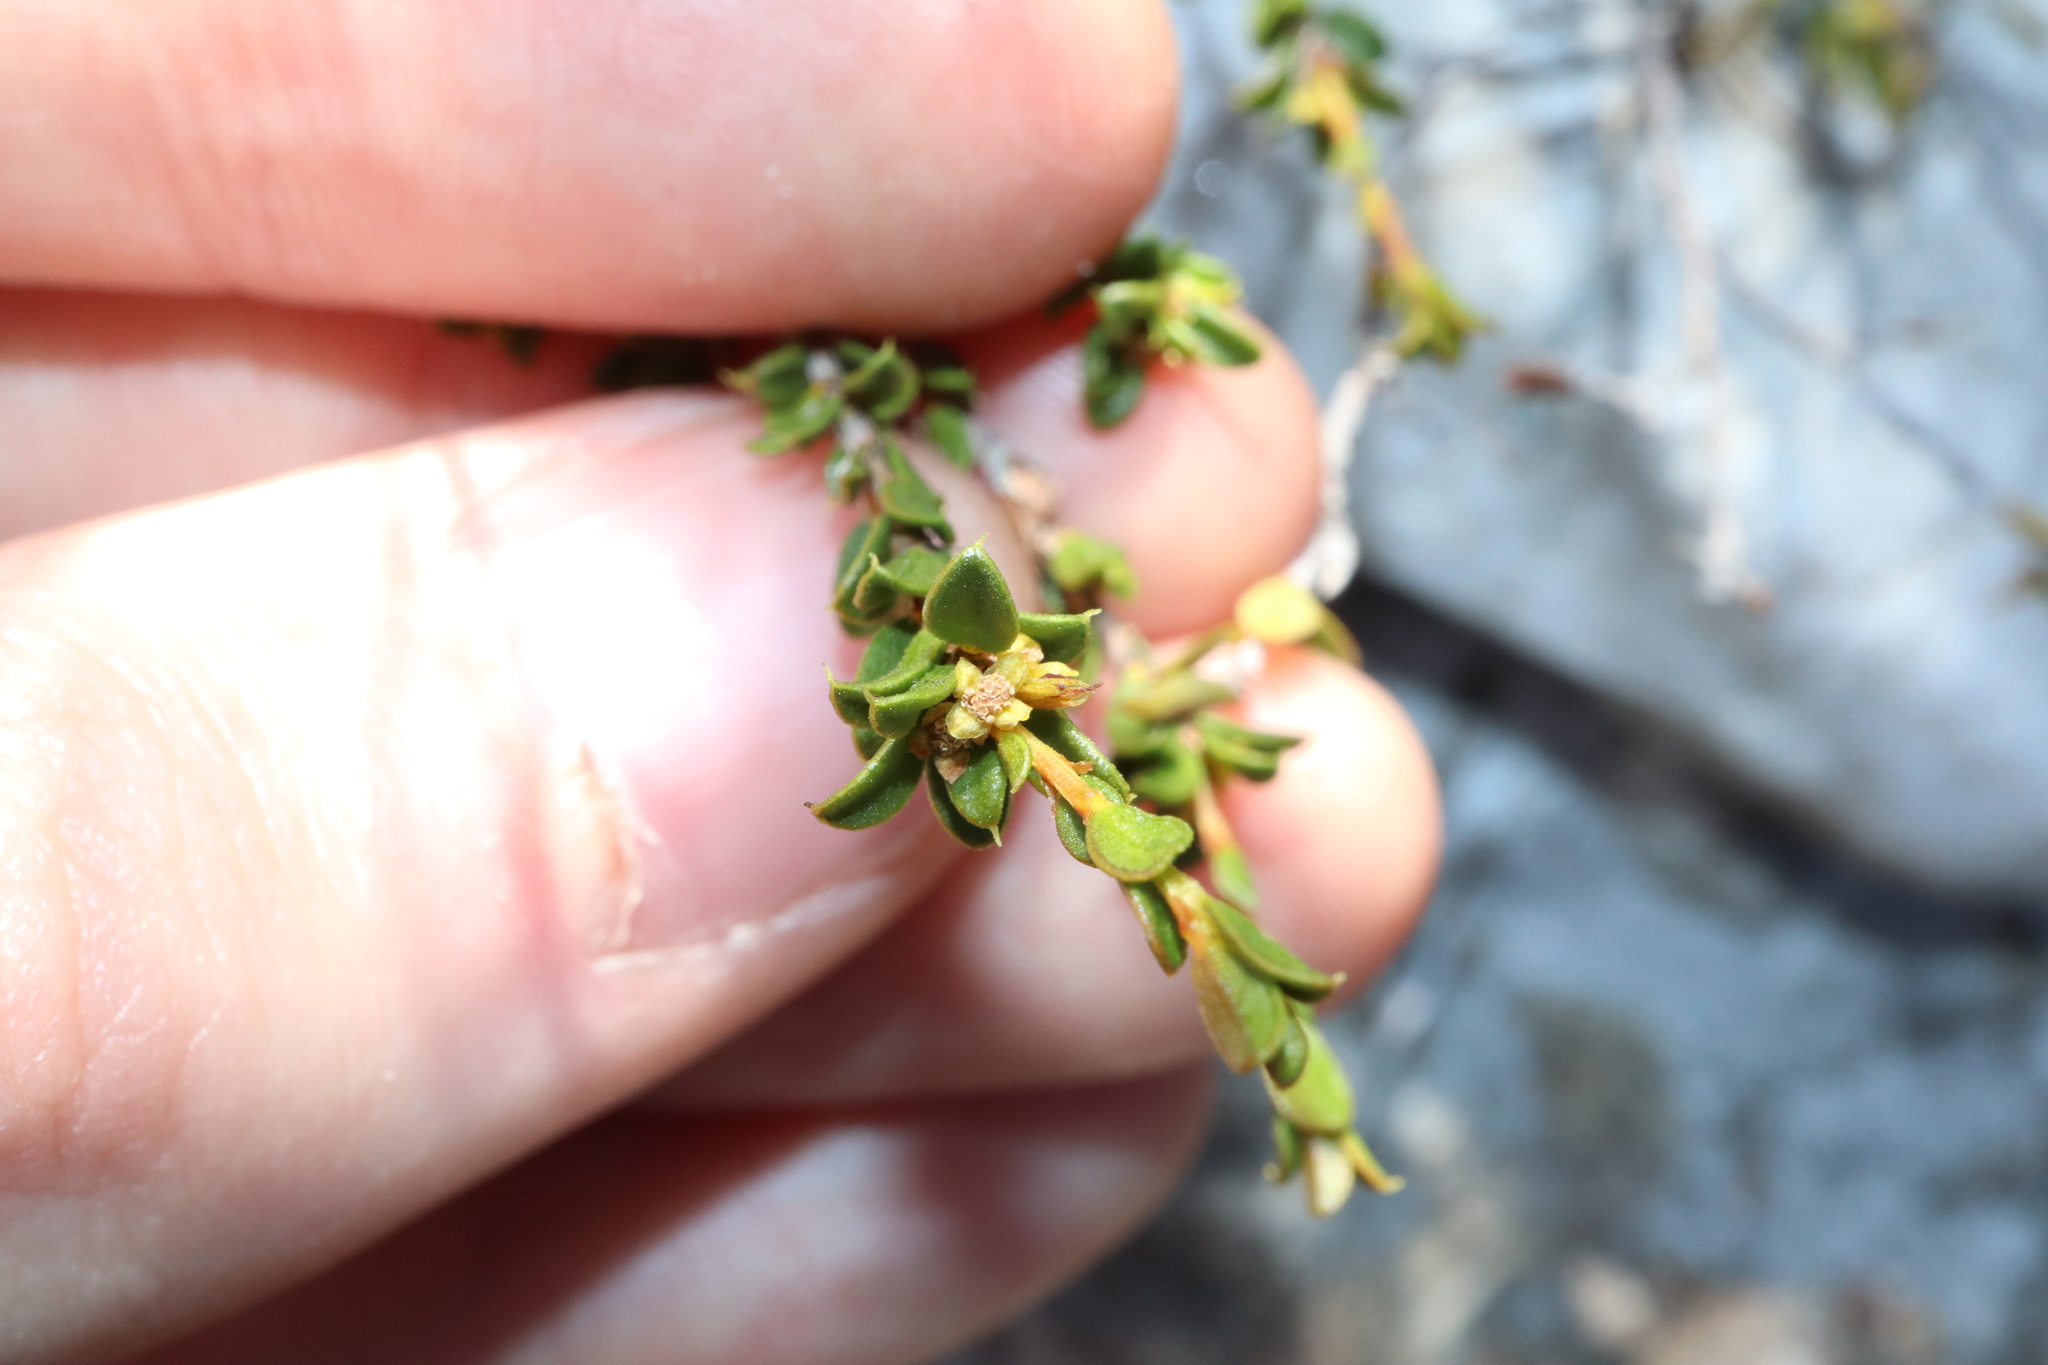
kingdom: Plantae
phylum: Tracheophyta
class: Magnoliopsida
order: Malpighiales
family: Picrodendraceae
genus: Stachystemon
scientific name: Stachystemon mucronatus
